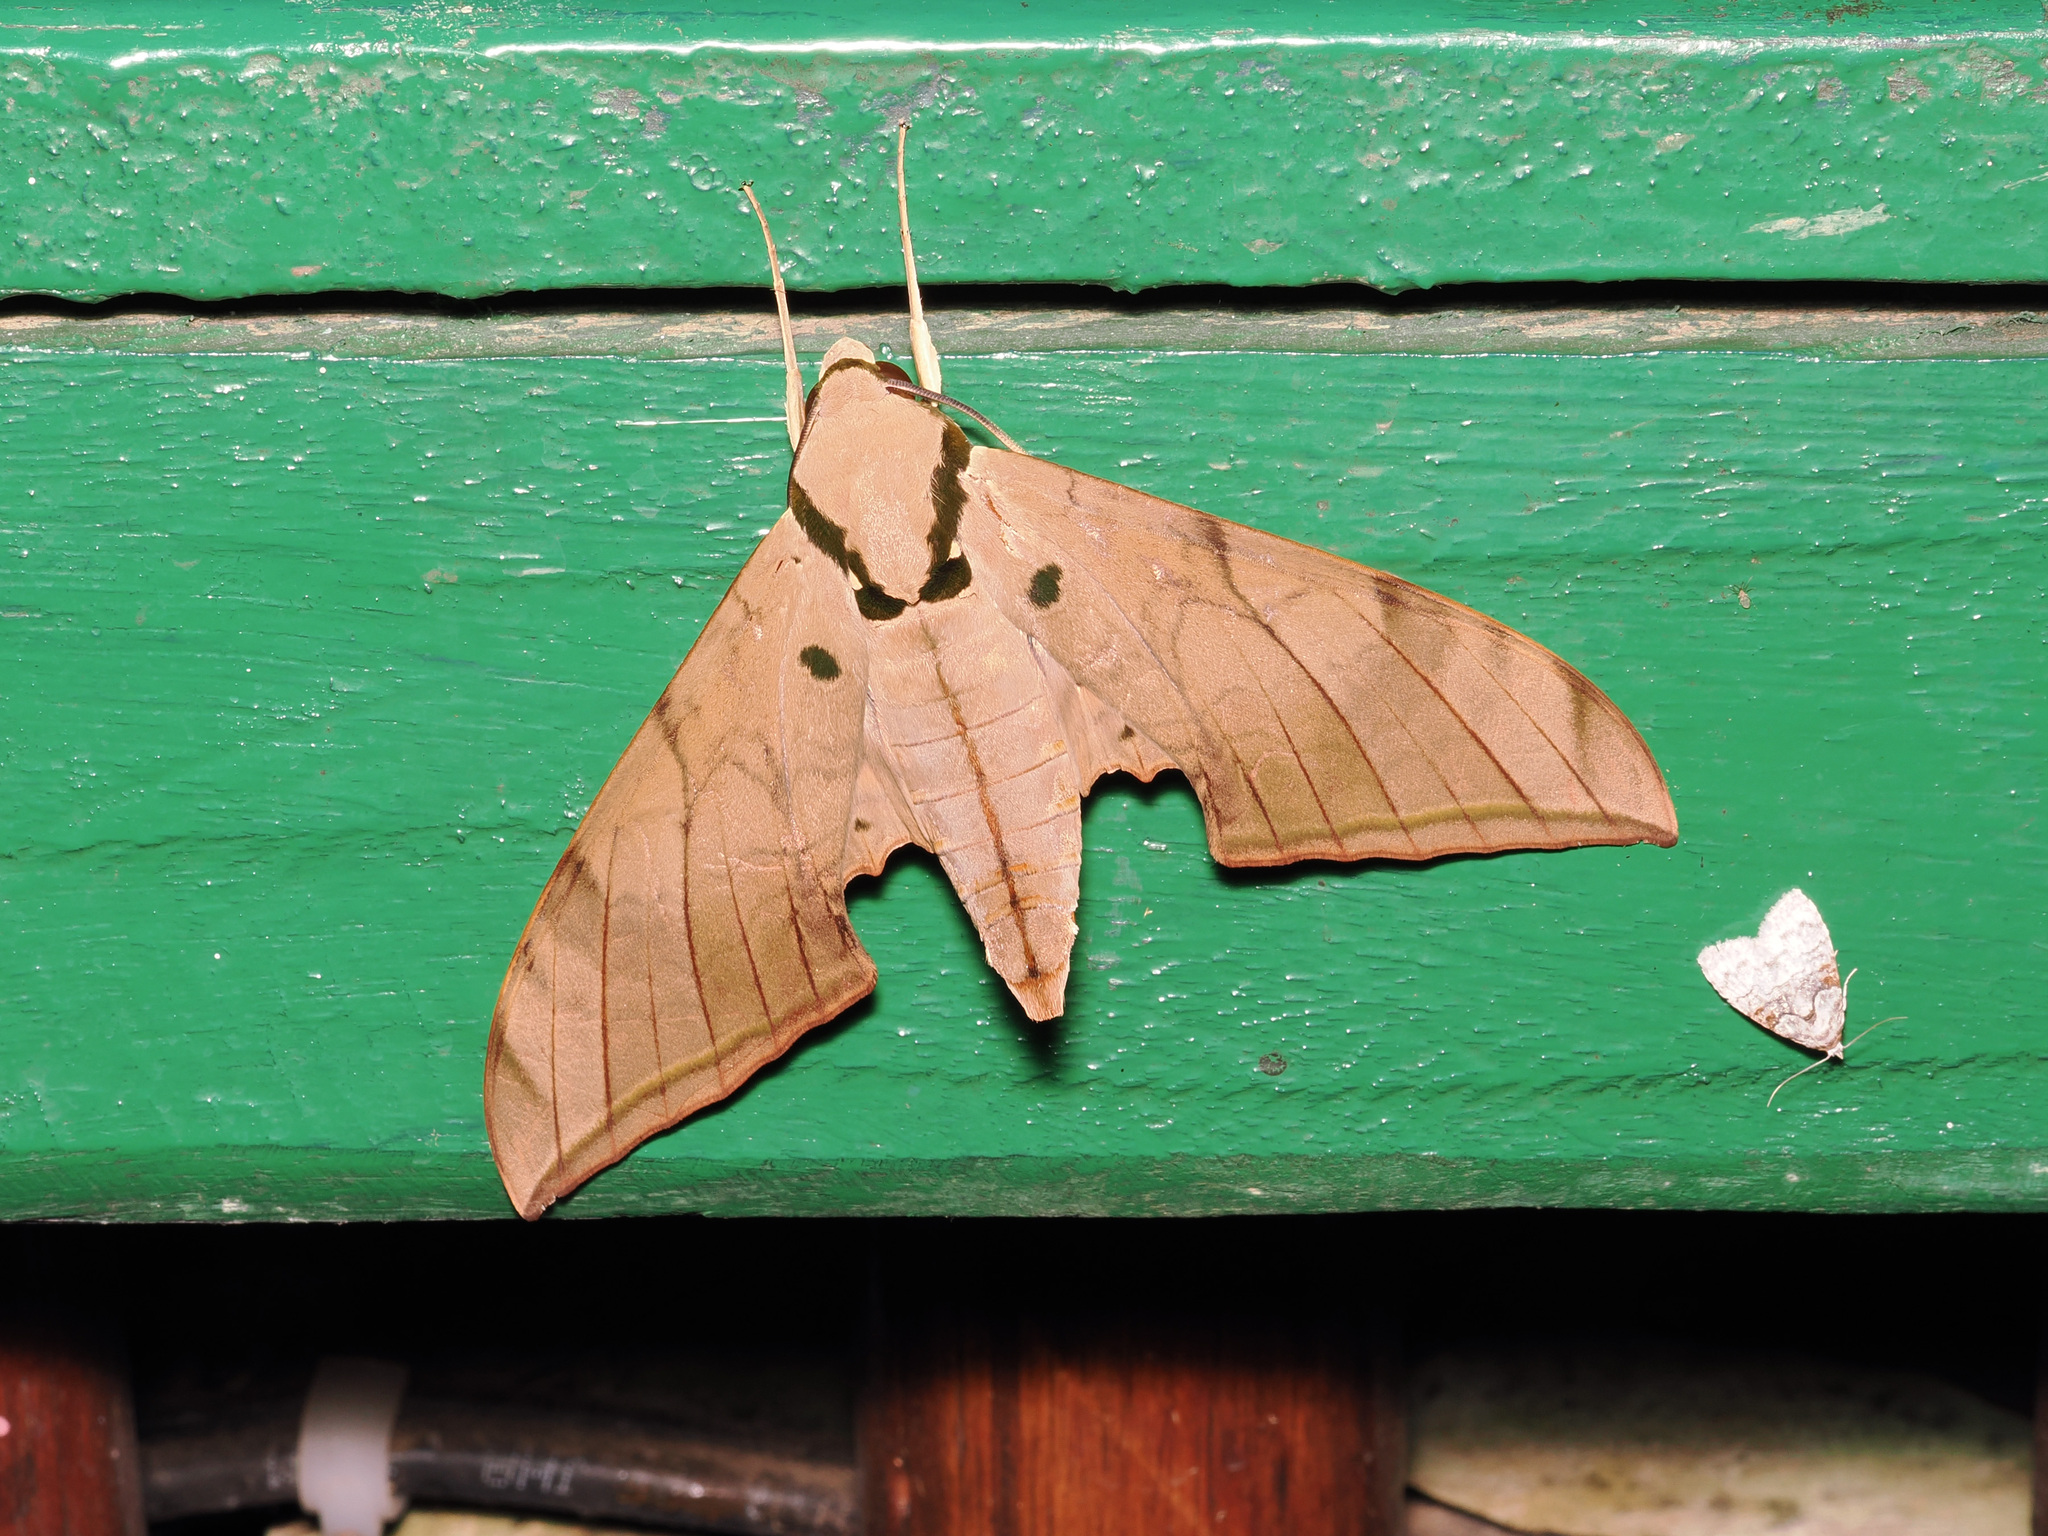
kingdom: Animalia
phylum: Arthropoda
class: Insecta
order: Lepidoptera
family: Sphingidae
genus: Ambulyx
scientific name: Ambulyx pryeri
